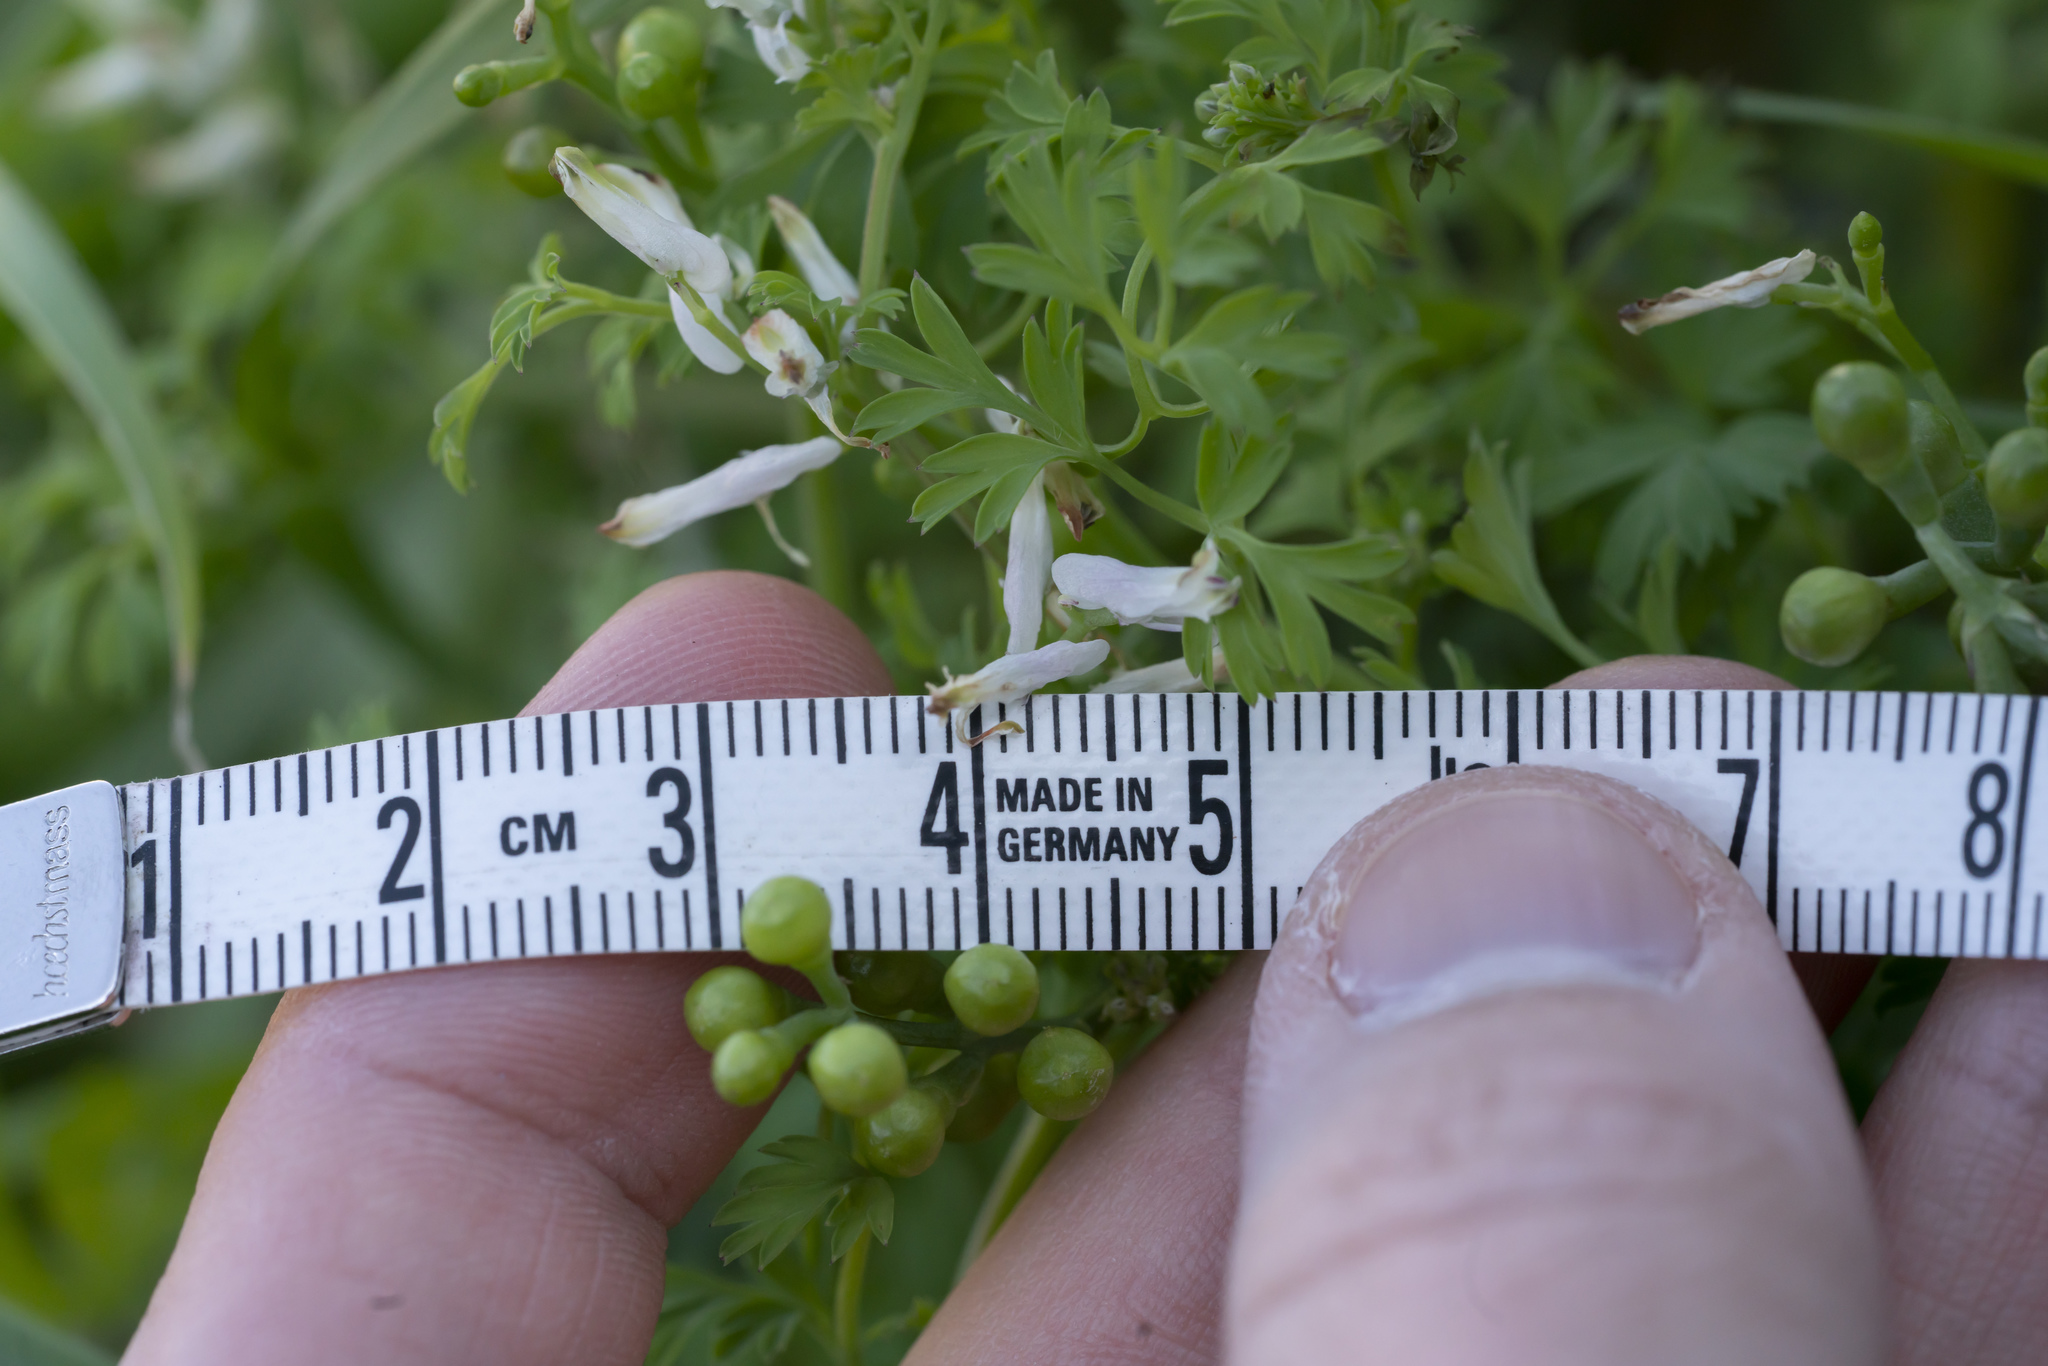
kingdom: Plantae
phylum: Tracheophyta
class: Magnoliopsida
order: Ranunculales
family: Papaveraceae
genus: Fumaria
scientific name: Fumaria macrocarpa
